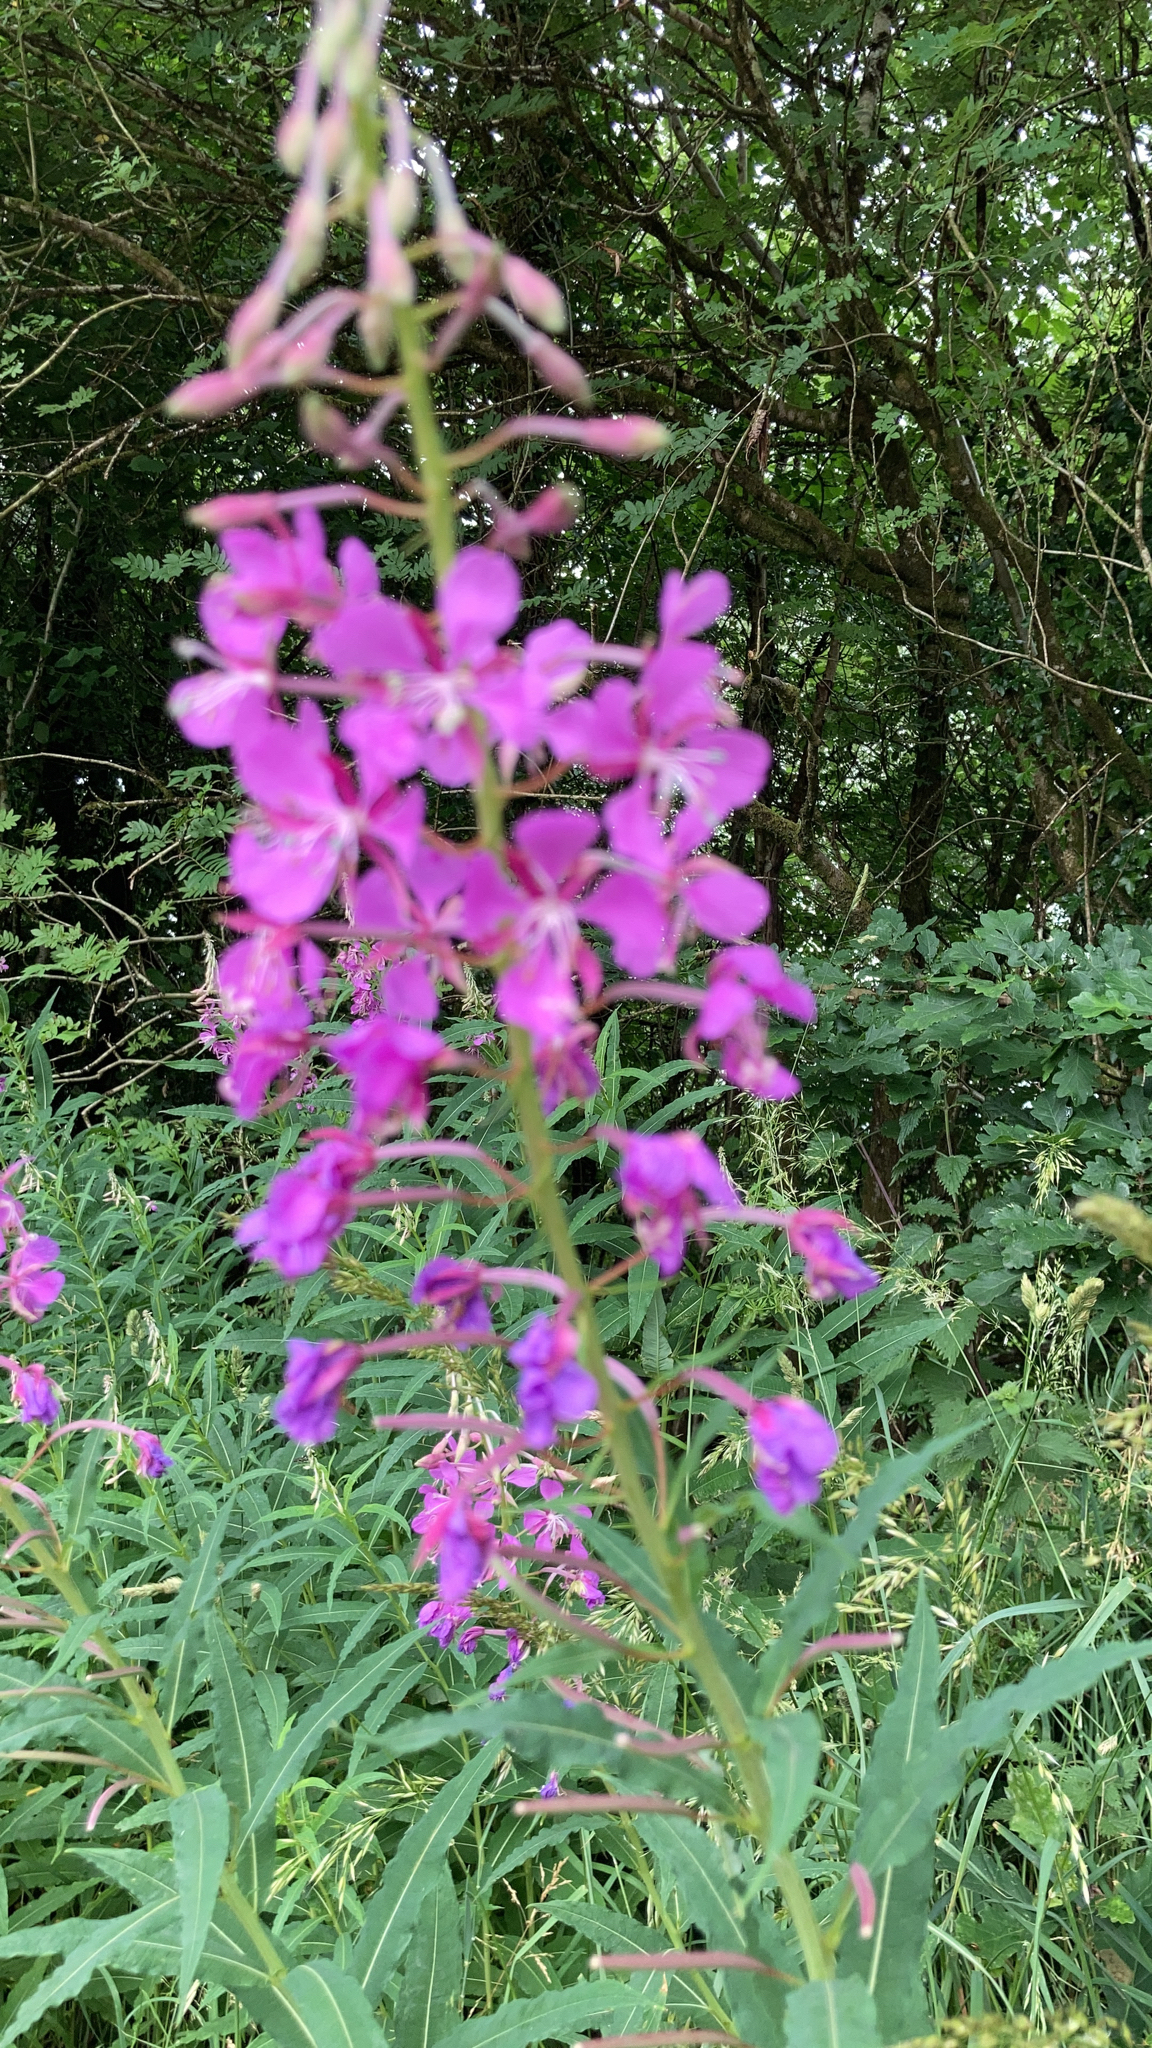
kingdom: Plantae
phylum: Tracheophyta
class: Magnoliopsida
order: Myrtales
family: Onagraceae
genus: Chamaenerion
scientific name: Chamaenerion angustifolium
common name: Fireweed
